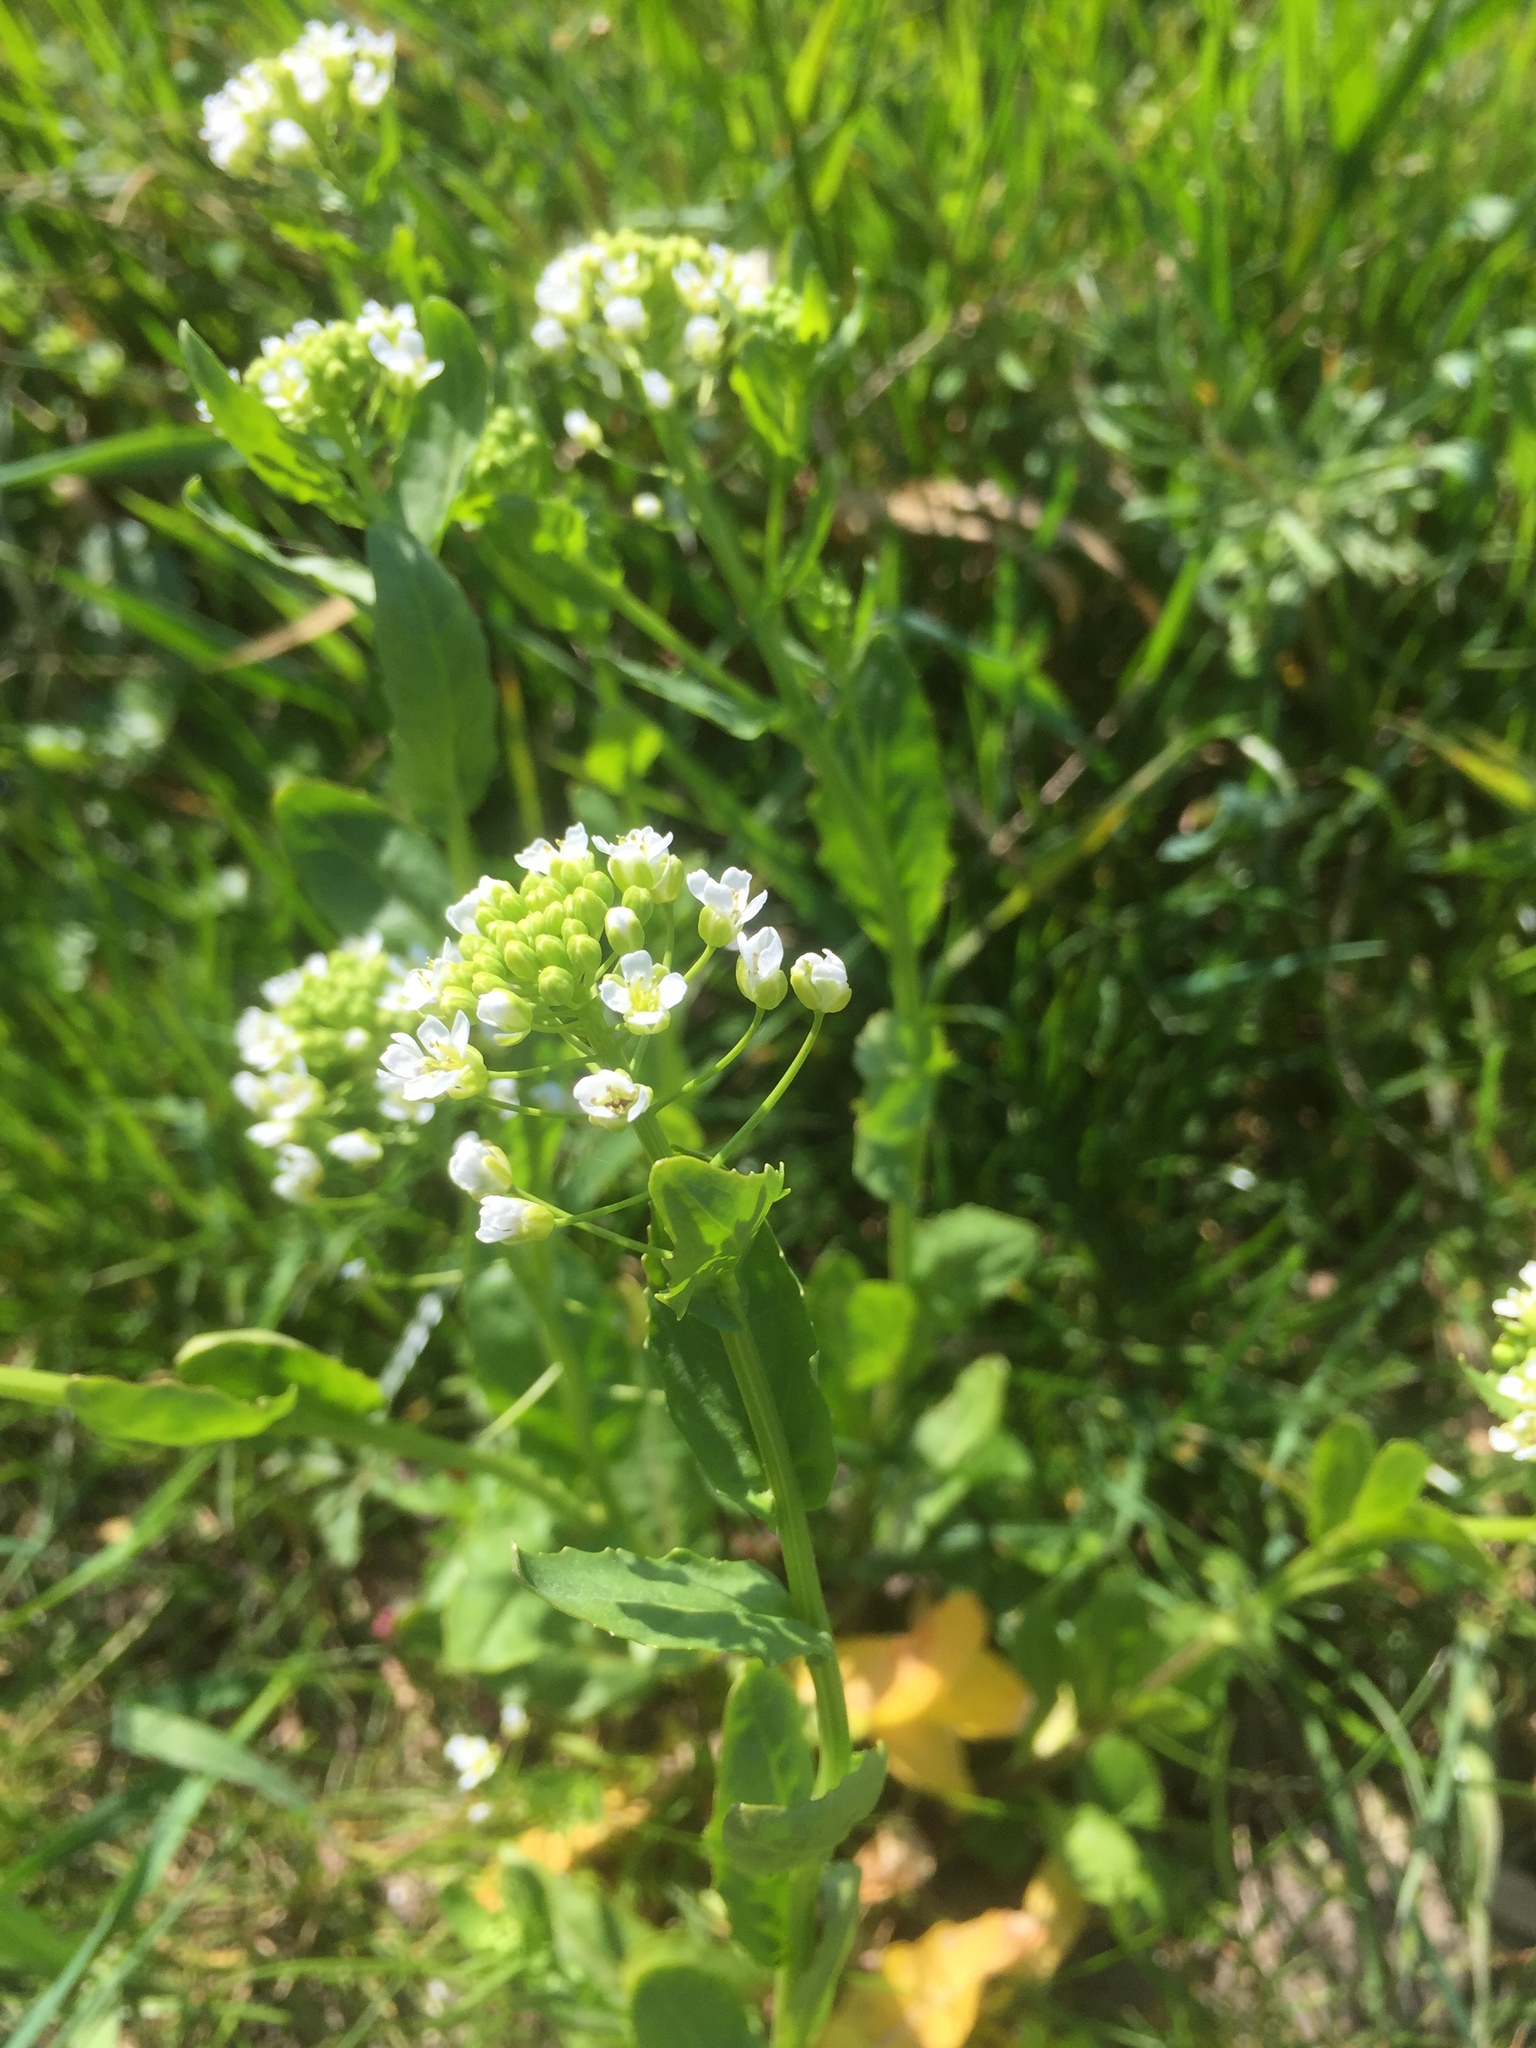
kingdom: Plantae
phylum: Tracheophyta
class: Magnoliopsida
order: Brassicales
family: Brassicaceae
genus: Thlaspi
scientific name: Thlaspi arvense
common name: Field pennycress
